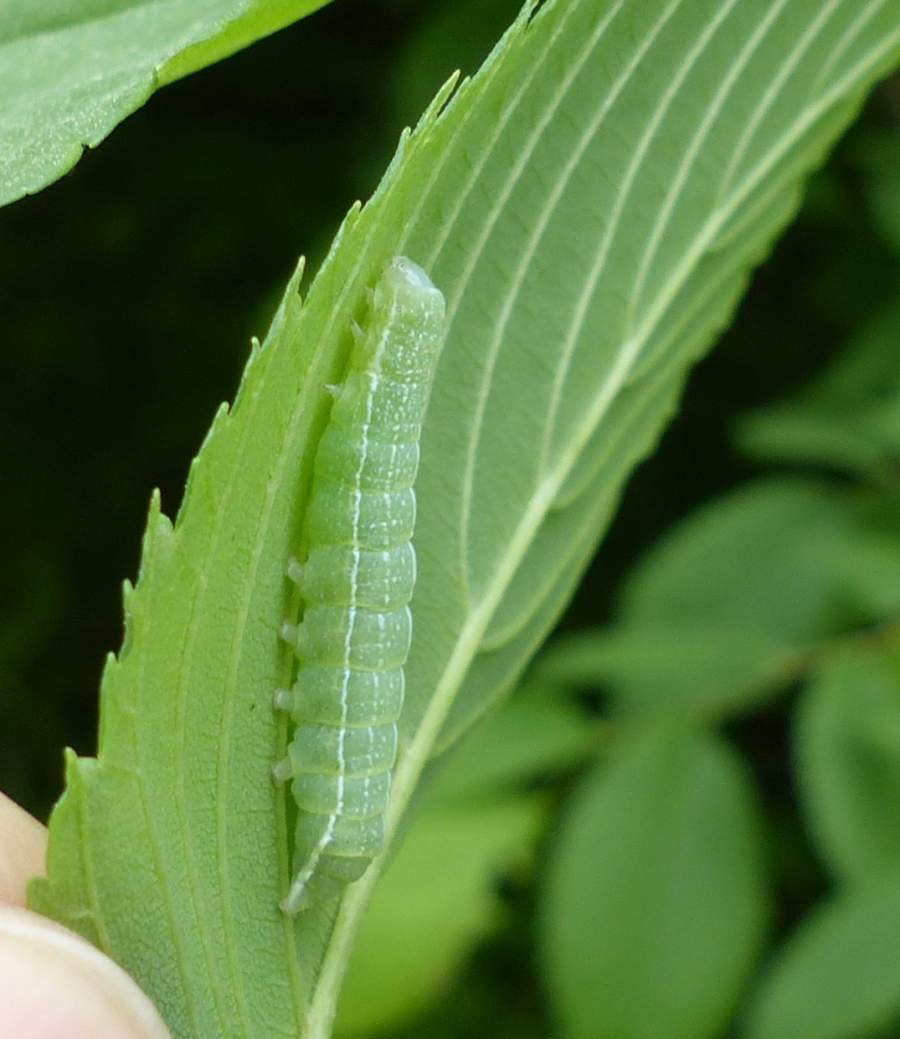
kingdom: Animalia
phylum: Arthropoda
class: Insecta
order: Lepidoptera
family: Noctuidae
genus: Orthosia
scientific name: Orthosia hibisci
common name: Green fruitworm
